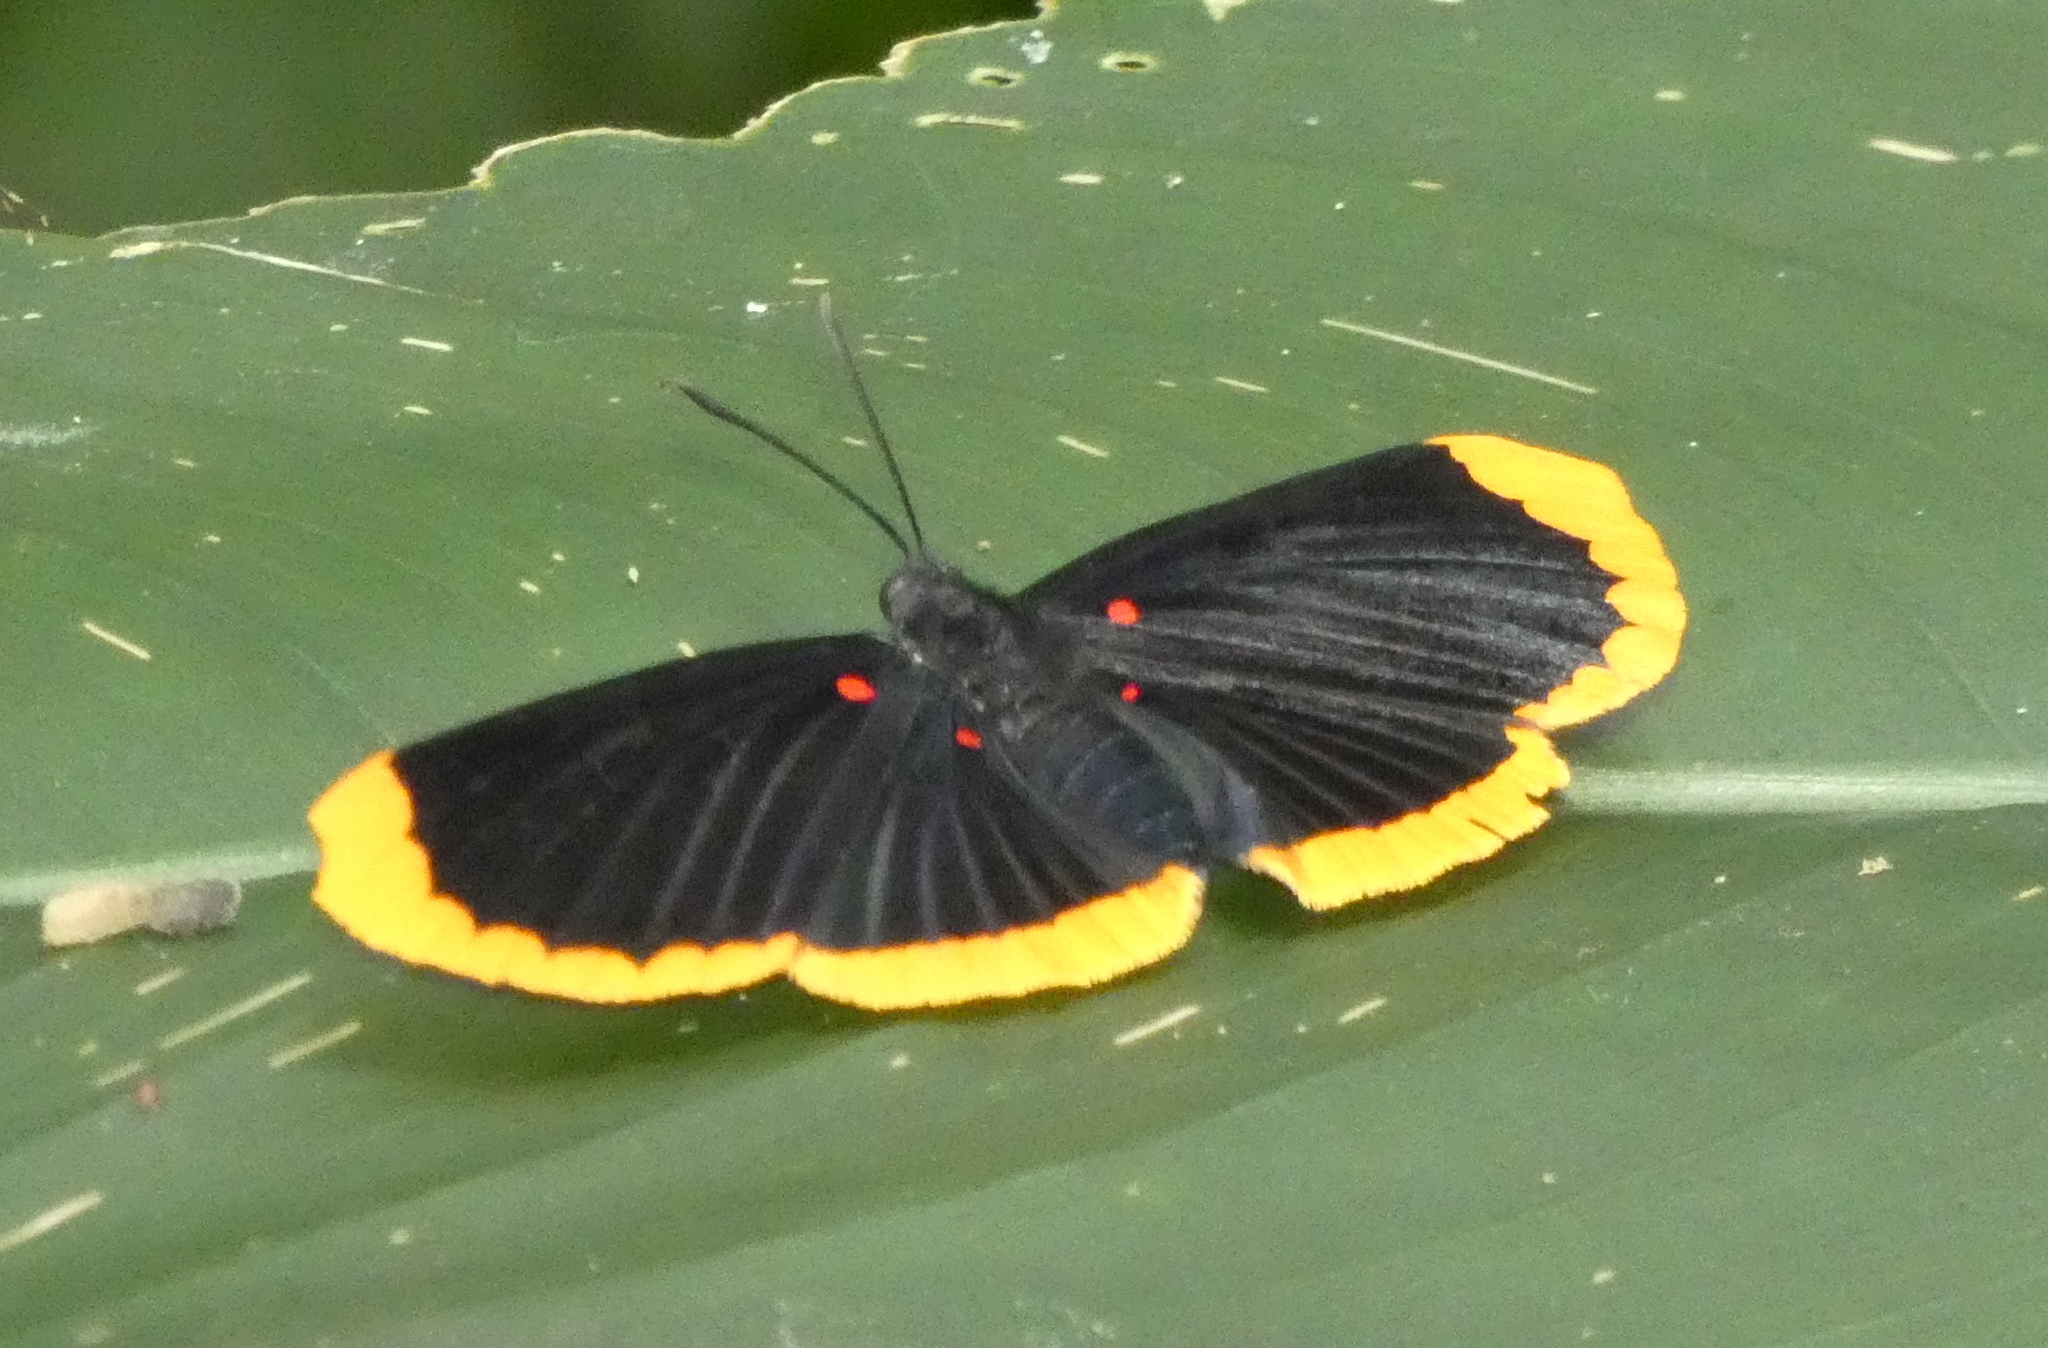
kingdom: Animalia
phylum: Arthropoda
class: Insecta
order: Lepidoptera
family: Lycaenidae
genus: Melanis
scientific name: Melanis smithiae
